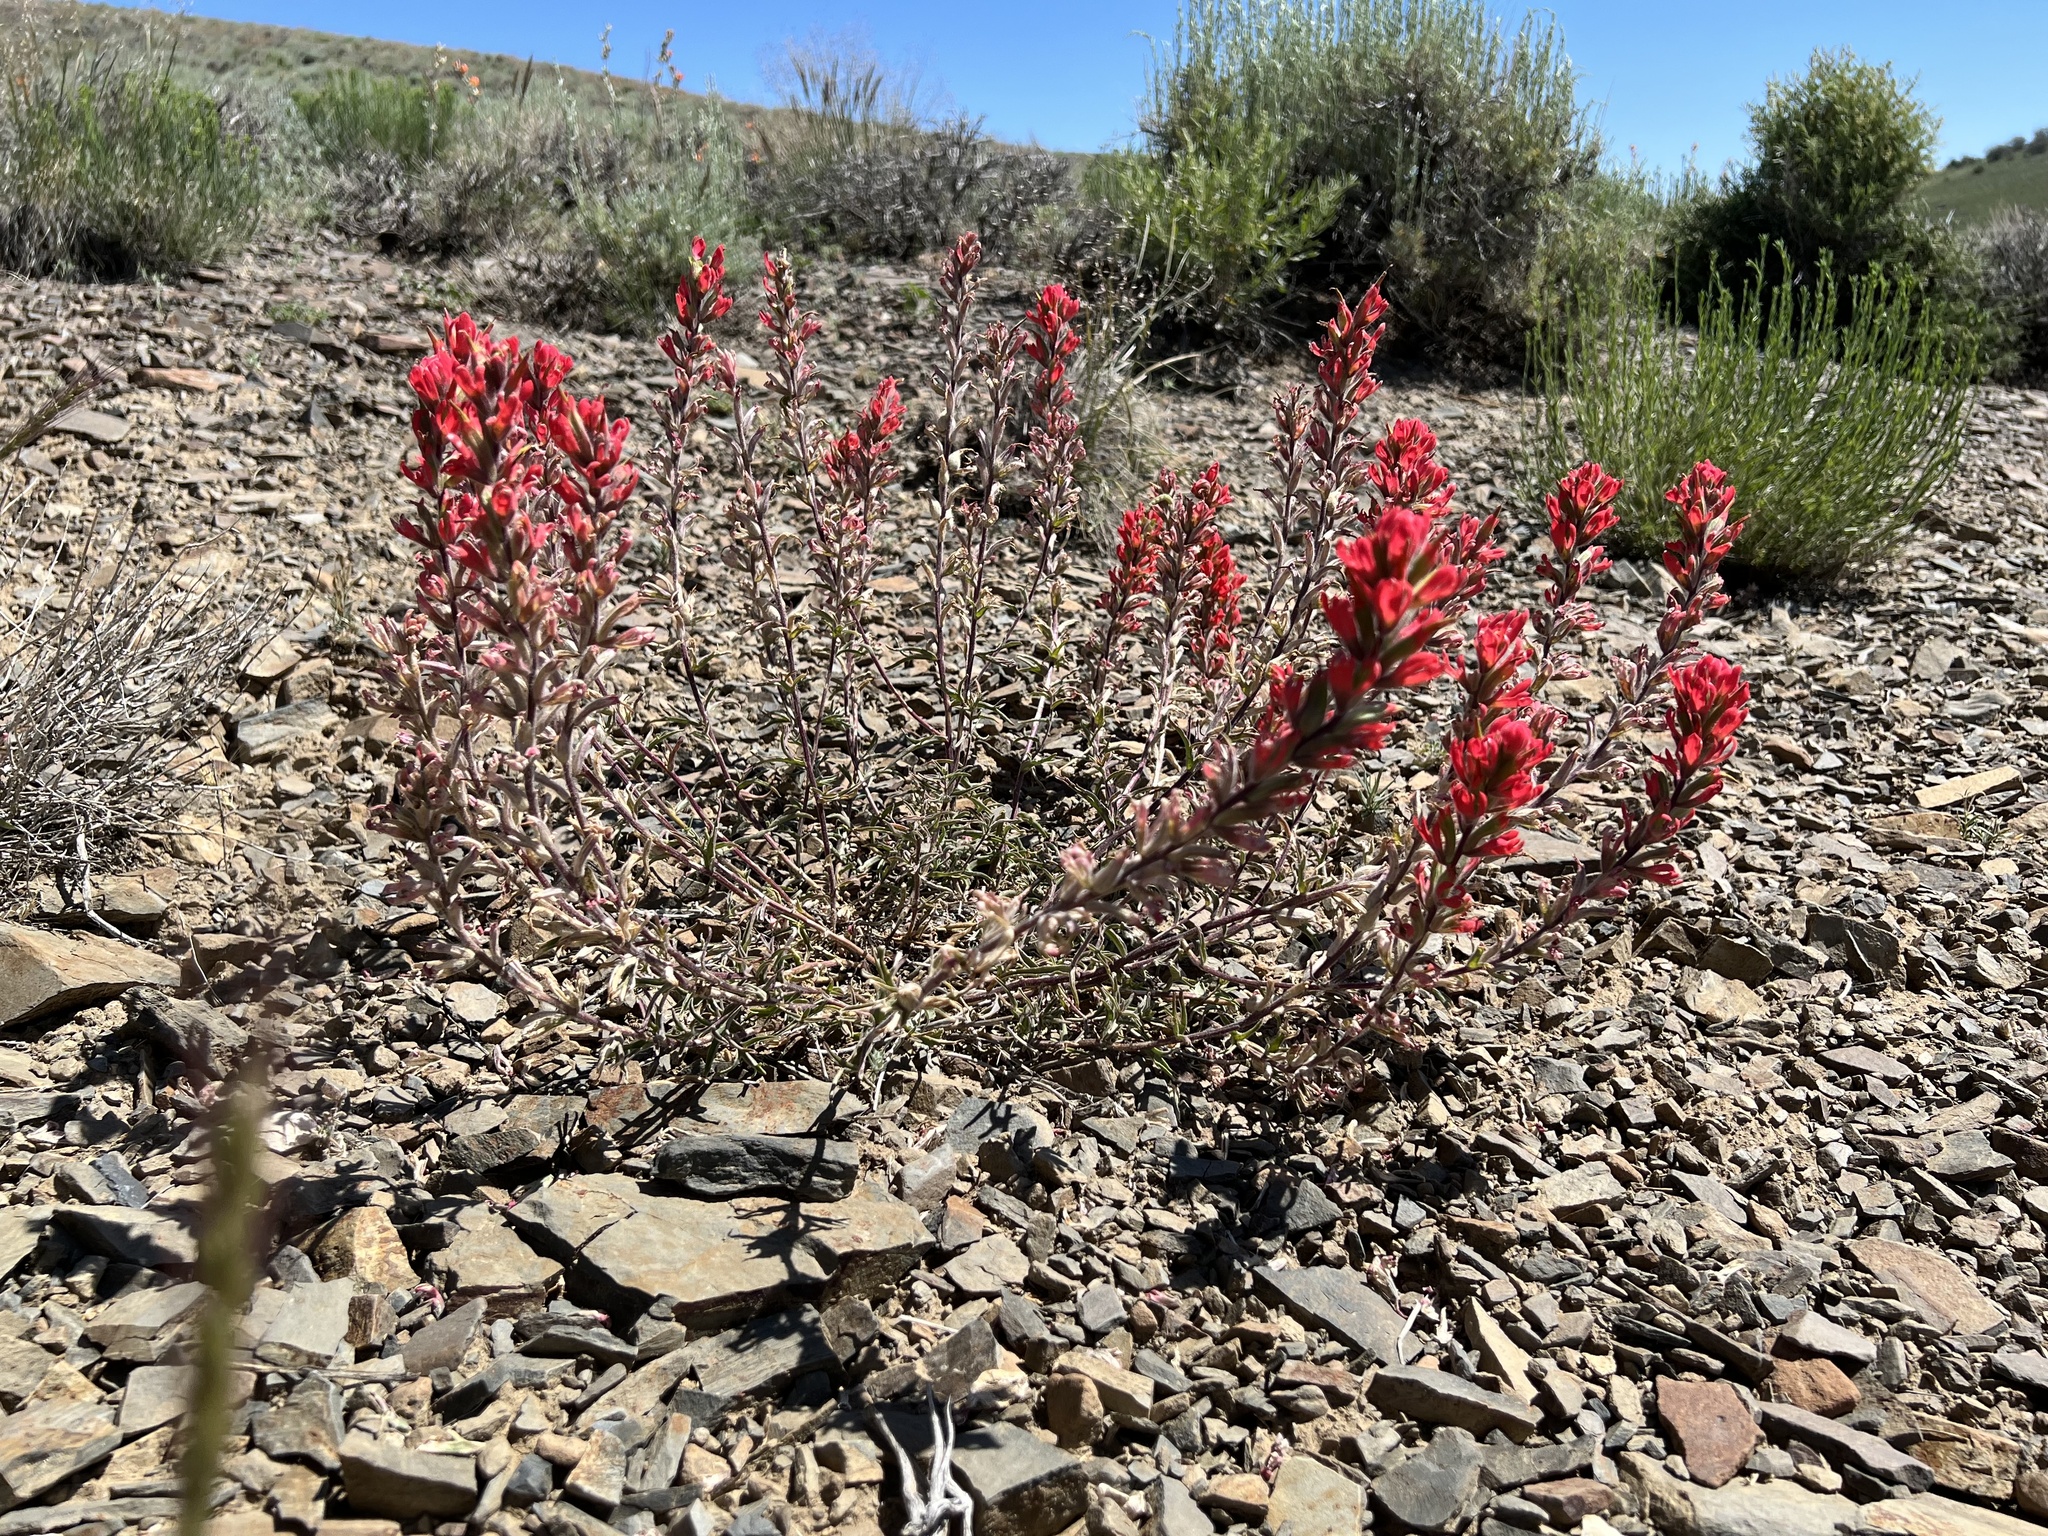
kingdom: Plantae
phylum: Tracheophyta
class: Magnoliopsida
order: Lamiales
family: Orobanchaceae
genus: Castilleja
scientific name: Castilleja chromosa
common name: Desert paintbrush
